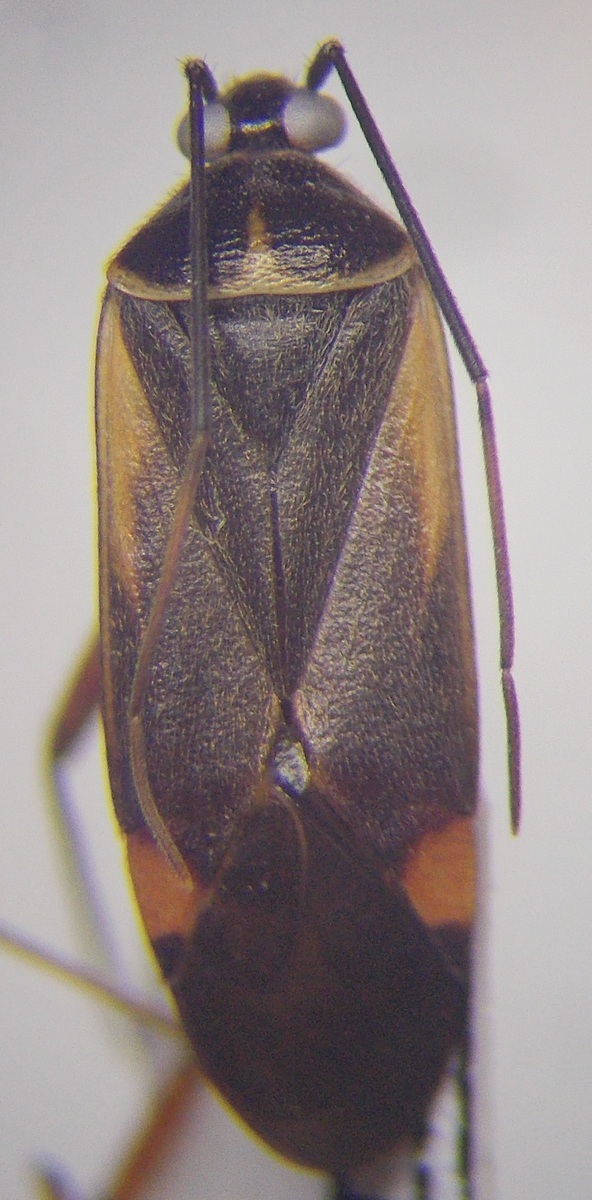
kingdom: Animalia
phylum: Arthropoda
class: Insecta
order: Hemiptera
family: Miridae
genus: Adelphocoris
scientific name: Adelphocoris seticornis
